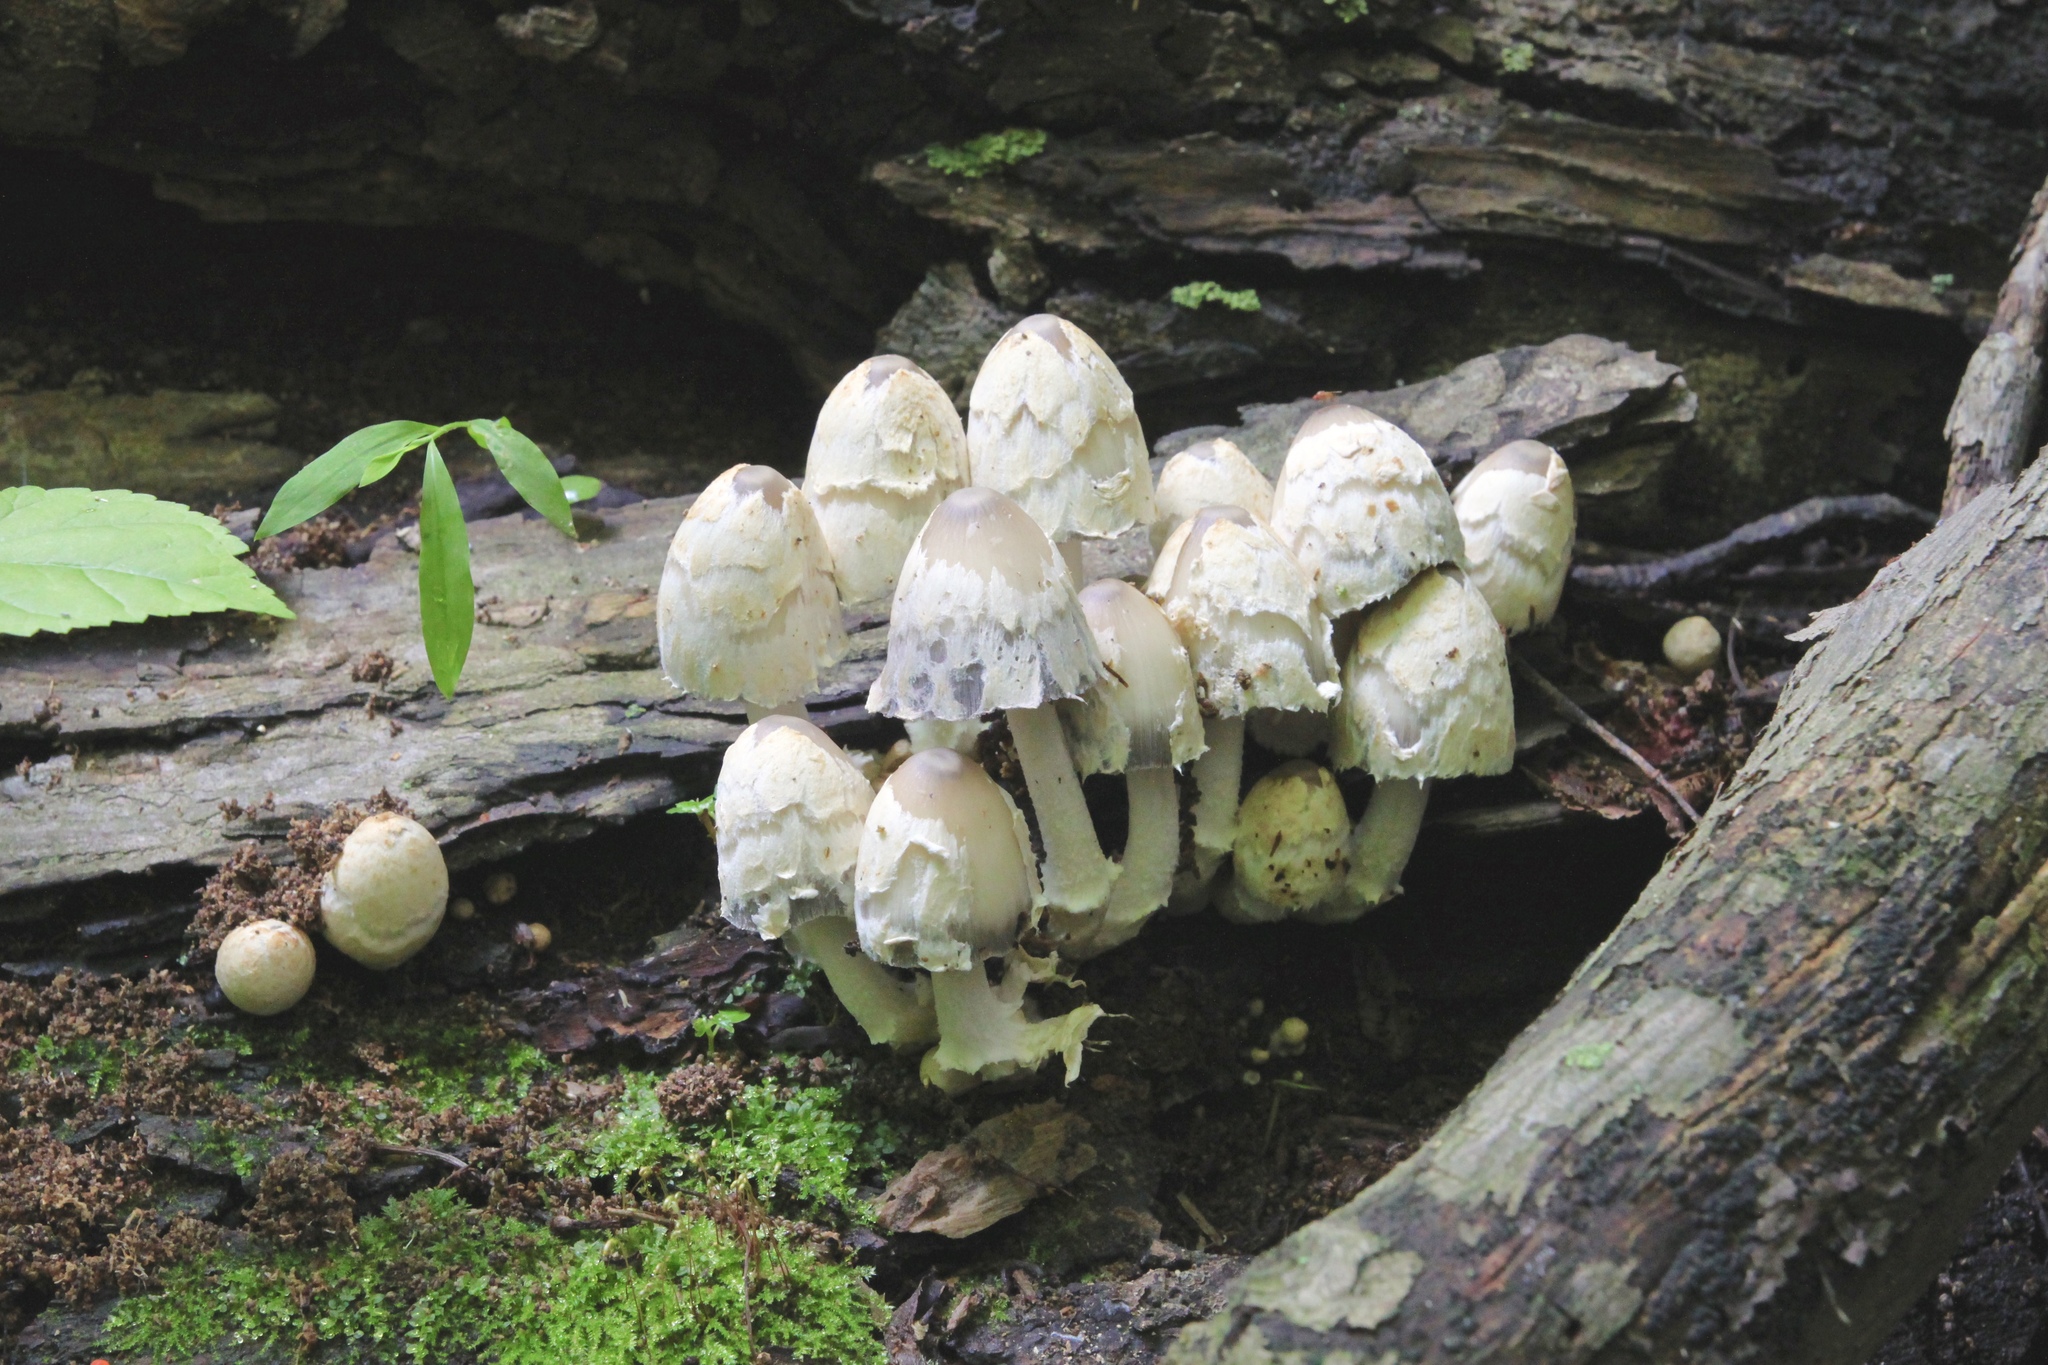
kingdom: Fungi
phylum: Basidiomycota
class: Agaricomycetes
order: Agaricales
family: Psathyrellaceae
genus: Coprinopsis
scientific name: Coprinopsis variegata
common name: Scaly ink cap
